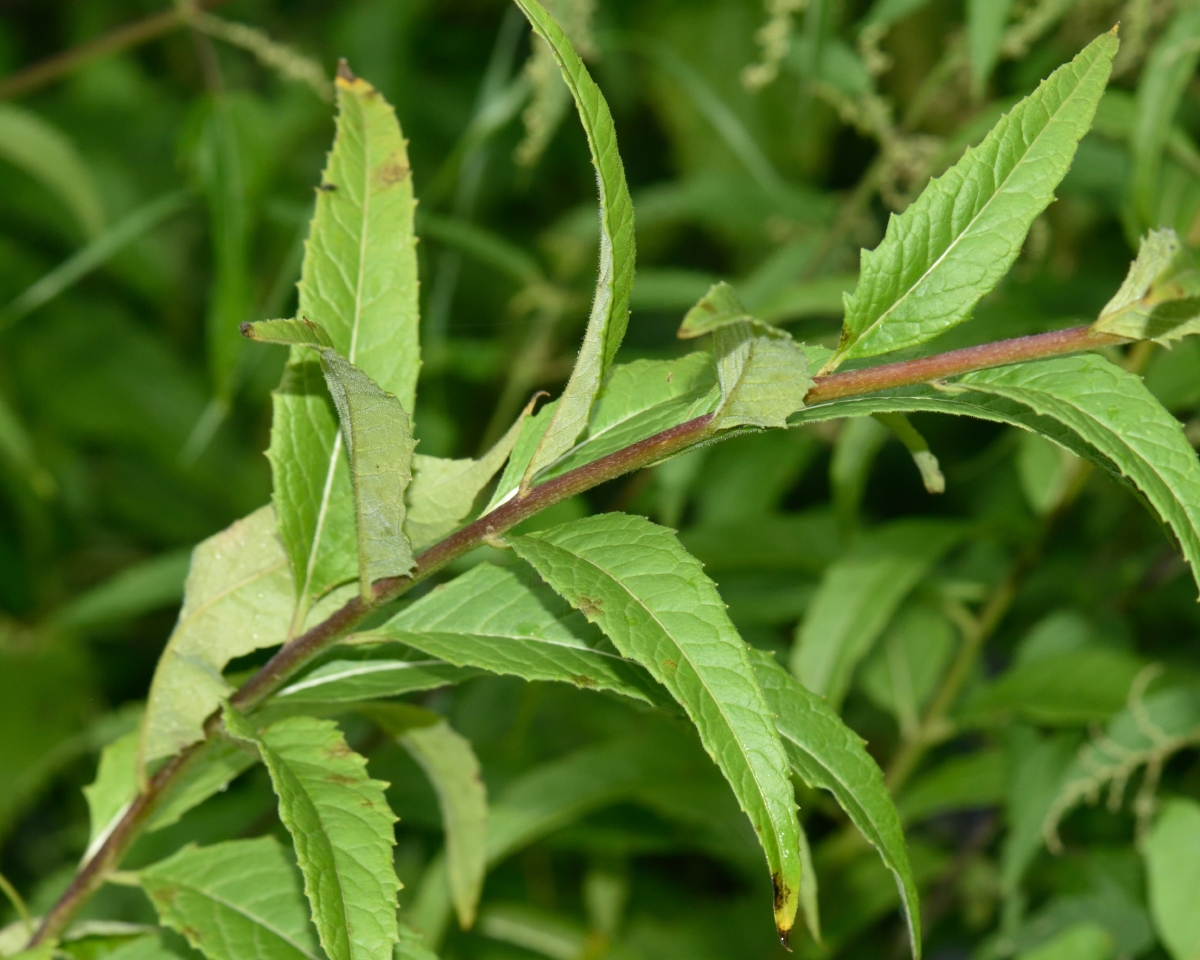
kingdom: Plantae
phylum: Tracheophyta
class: Magnoliopsida
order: Brassicales
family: Brassicaceae
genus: Sisymbrium
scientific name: Sisymbrium strictissimum
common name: Perennial rocket
